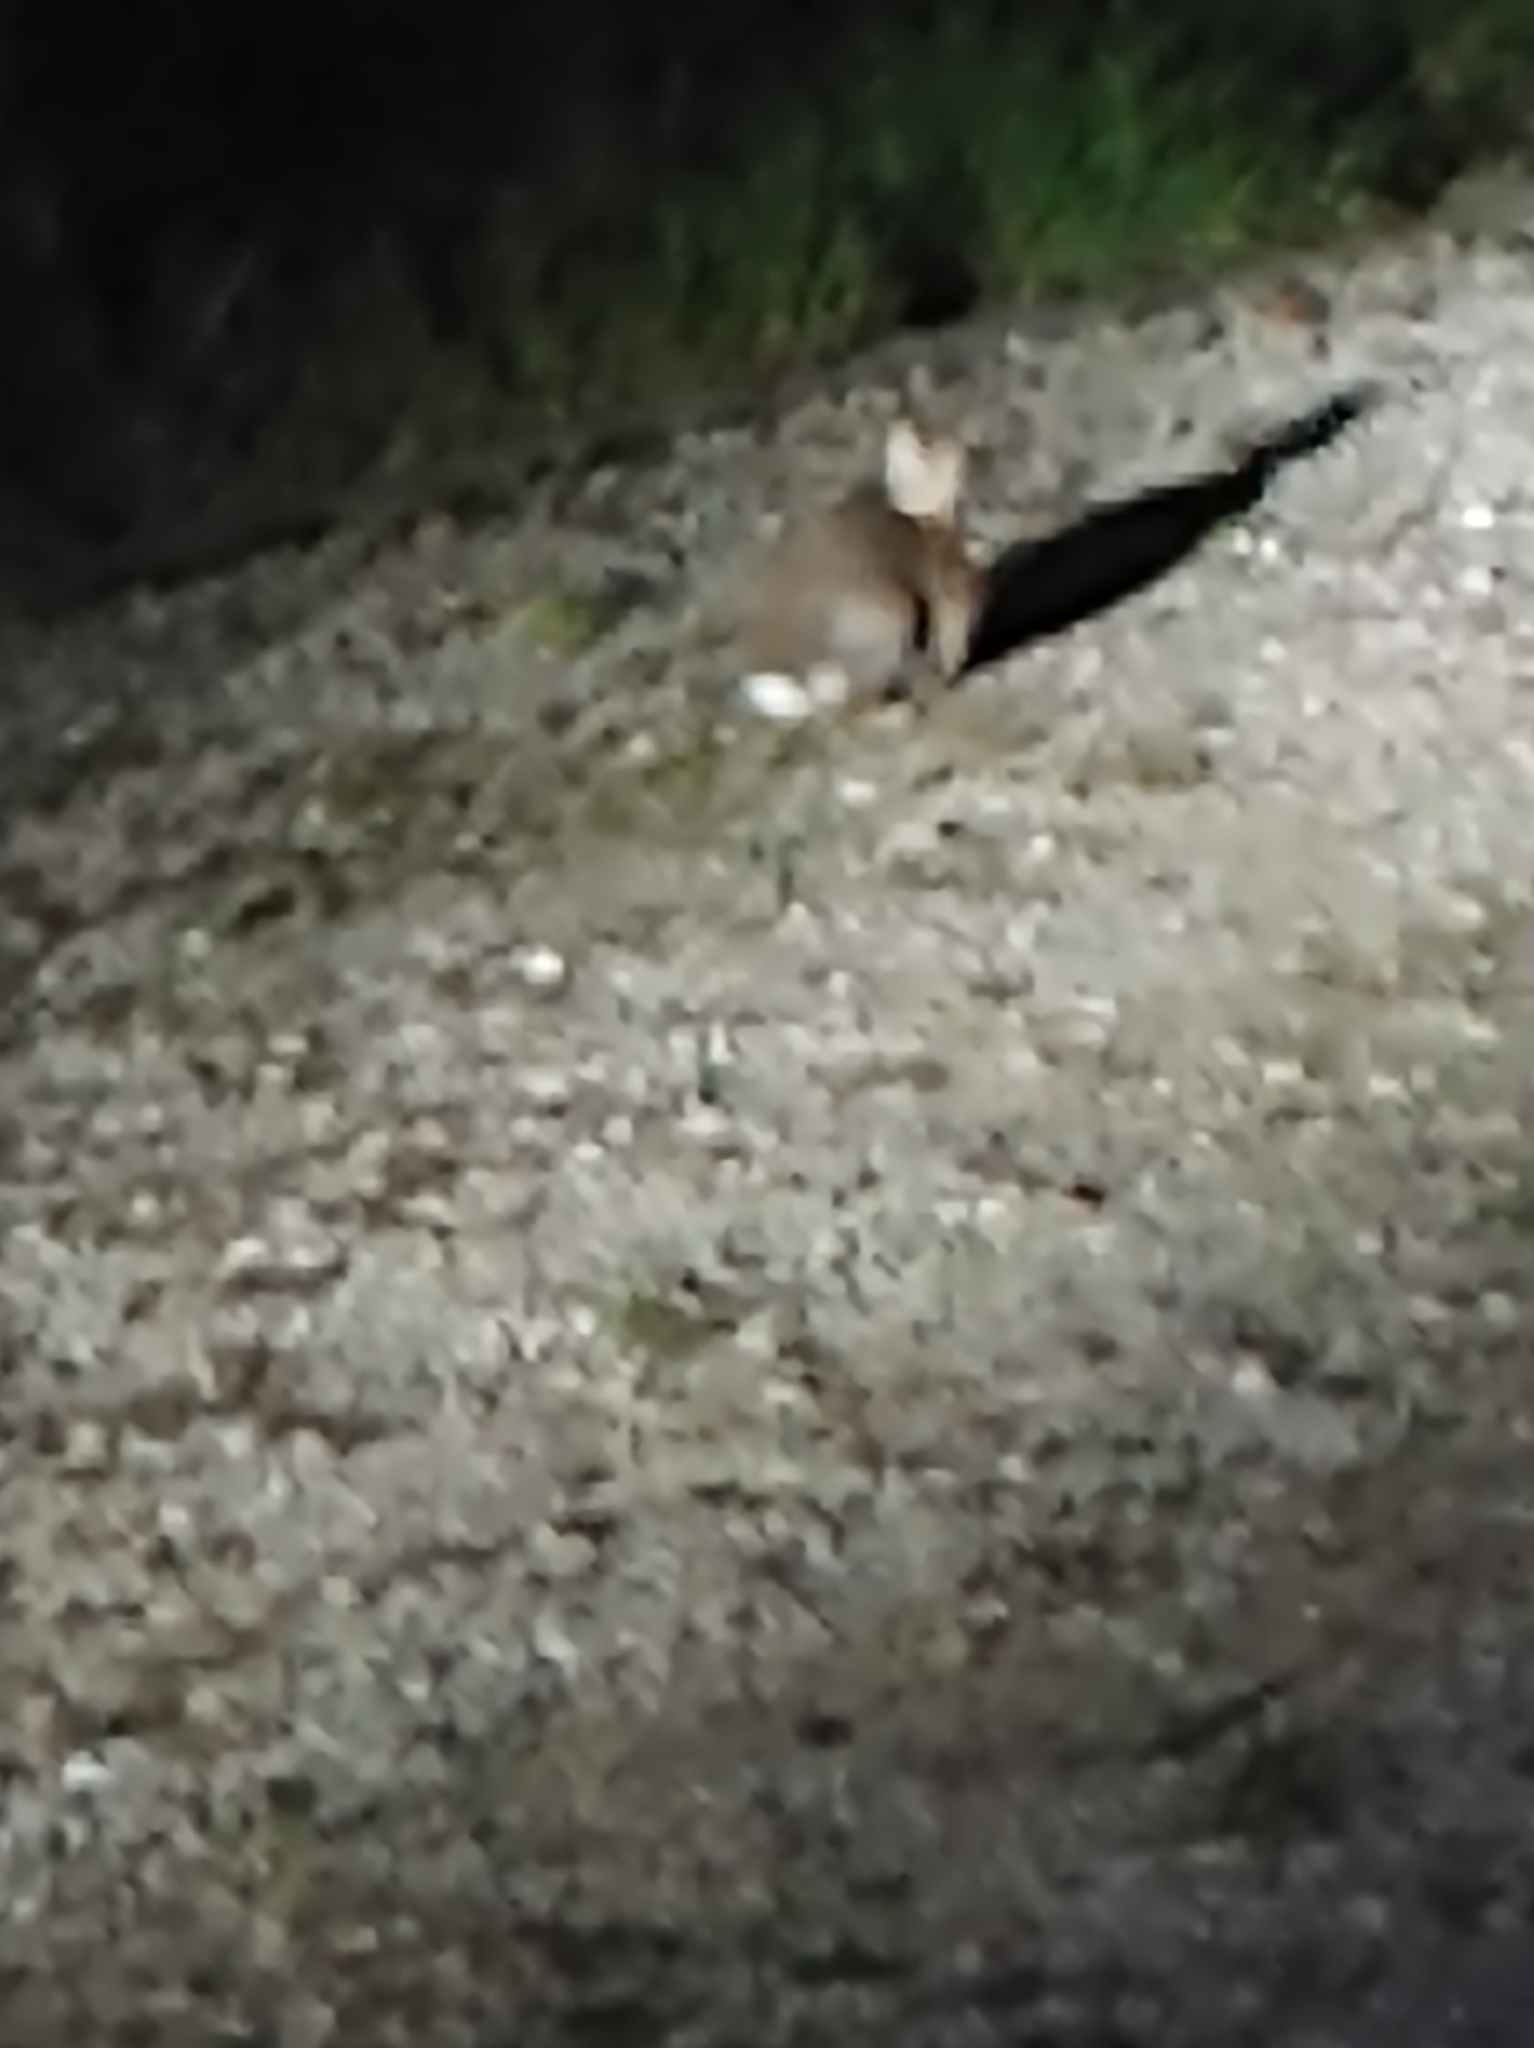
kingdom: Animalia
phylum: Chordata
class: Mammalia
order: Lagomorpha
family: Leporidae
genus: Sylvilagus
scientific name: Sylvilagus floridanus
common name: Eastern cottontail
